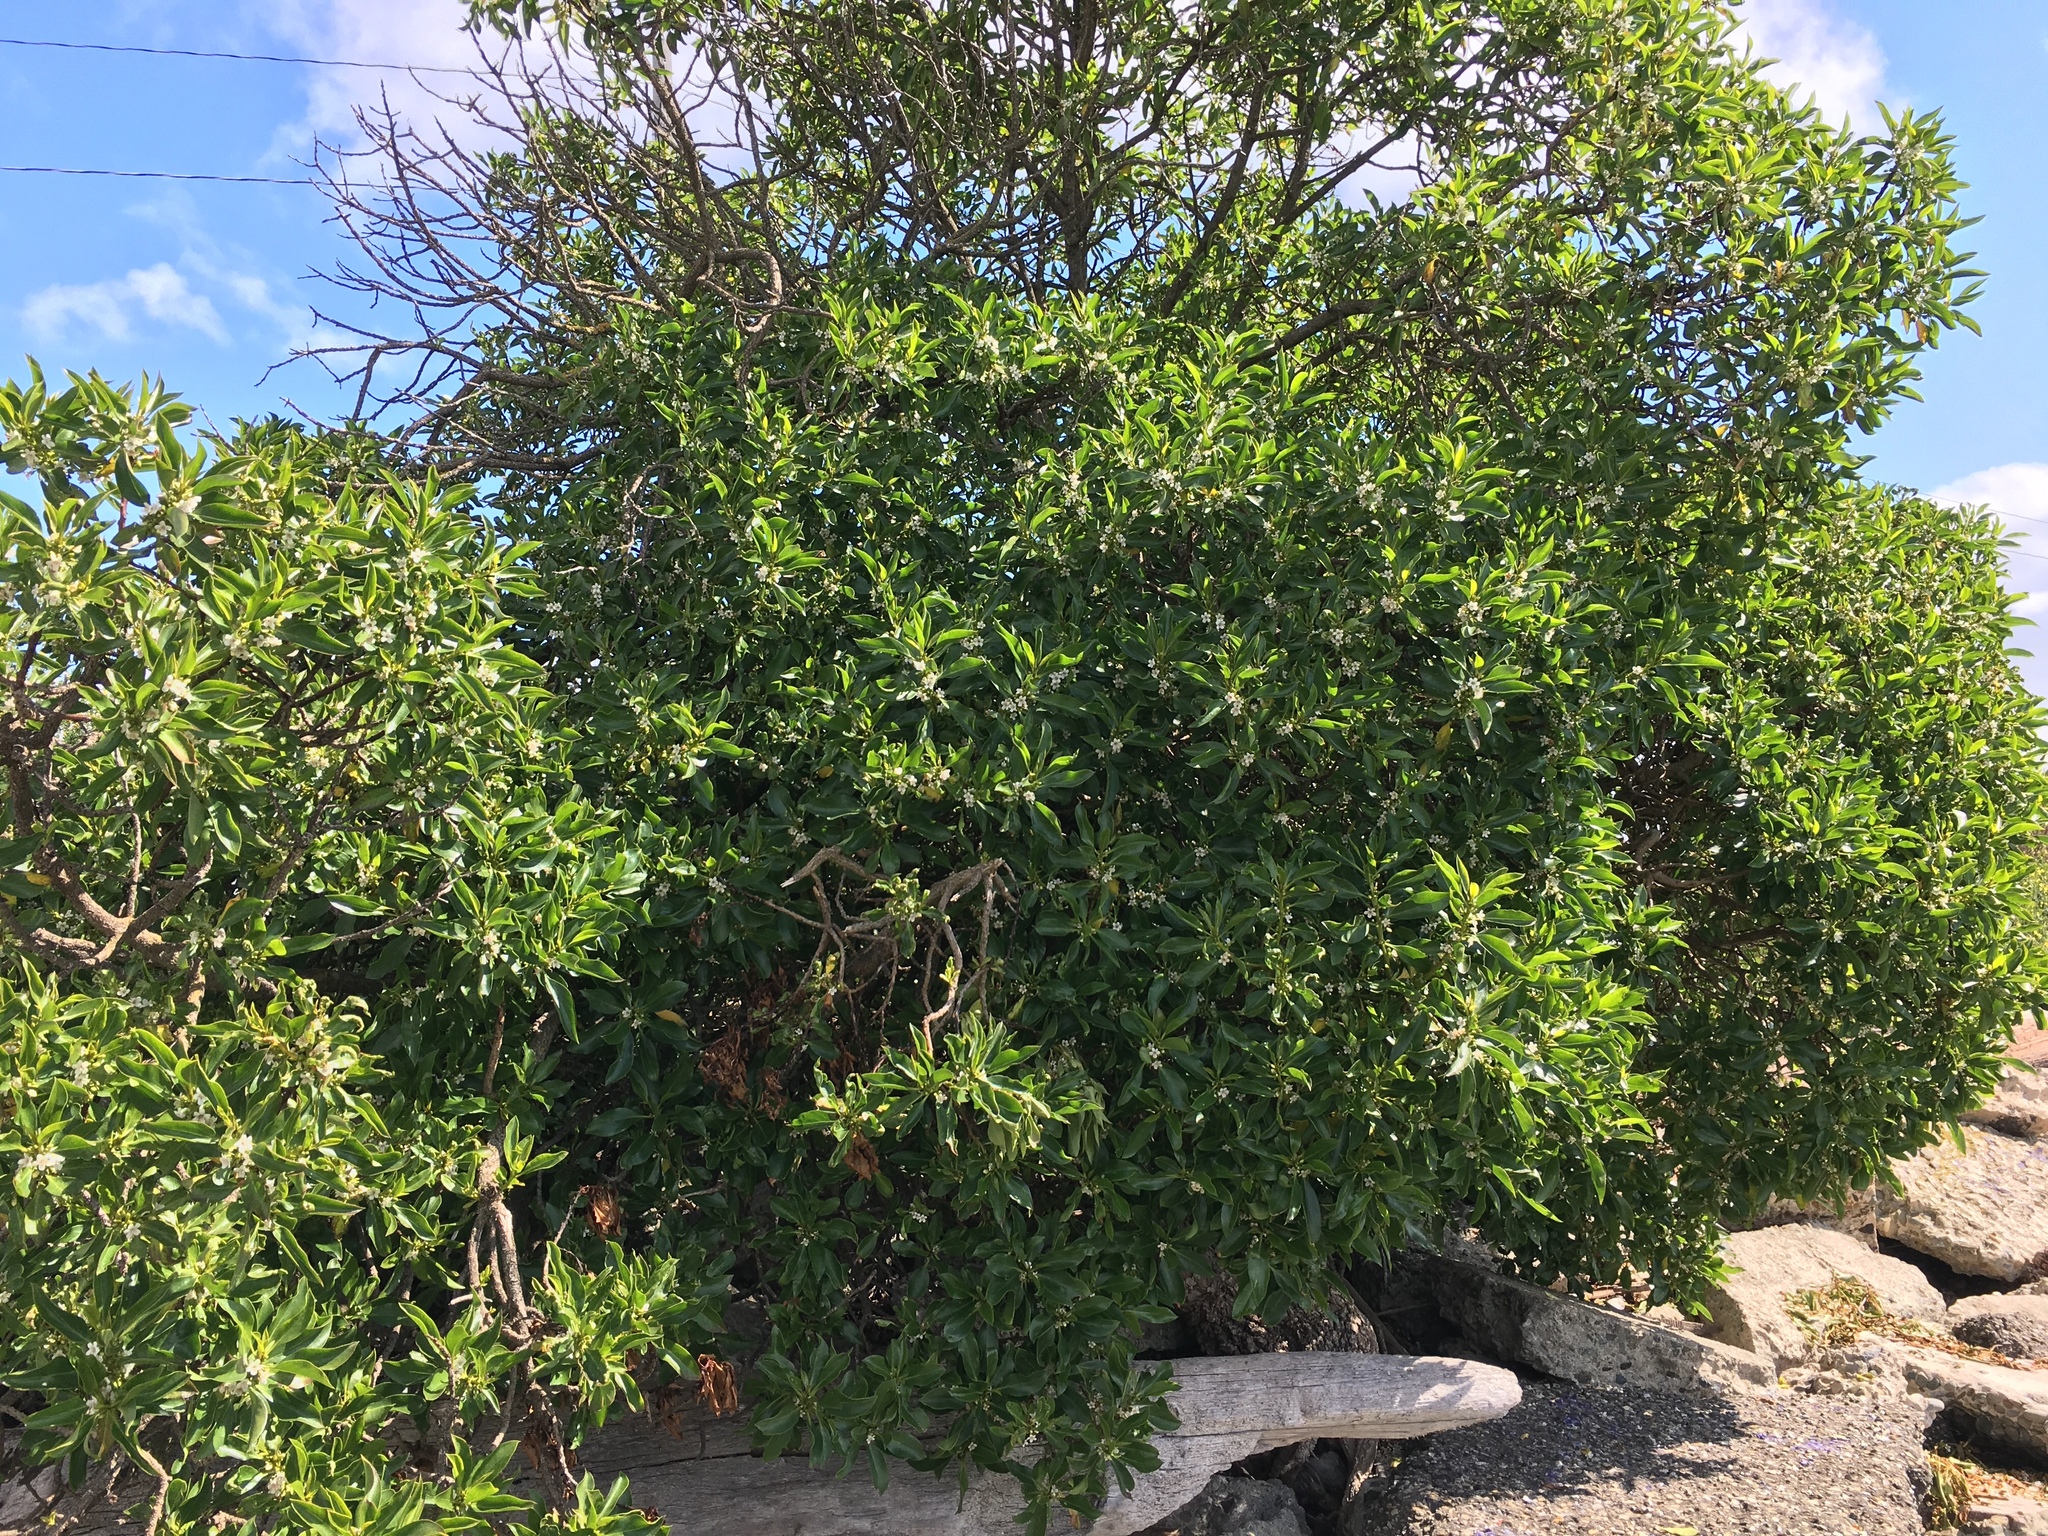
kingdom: Plantae
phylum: Tracheophyta
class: Magnoliopsida
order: Lamiales
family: Scrophulariaceae
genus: Myoporum
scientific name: Myoporum laetum
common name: Ngaio tree
